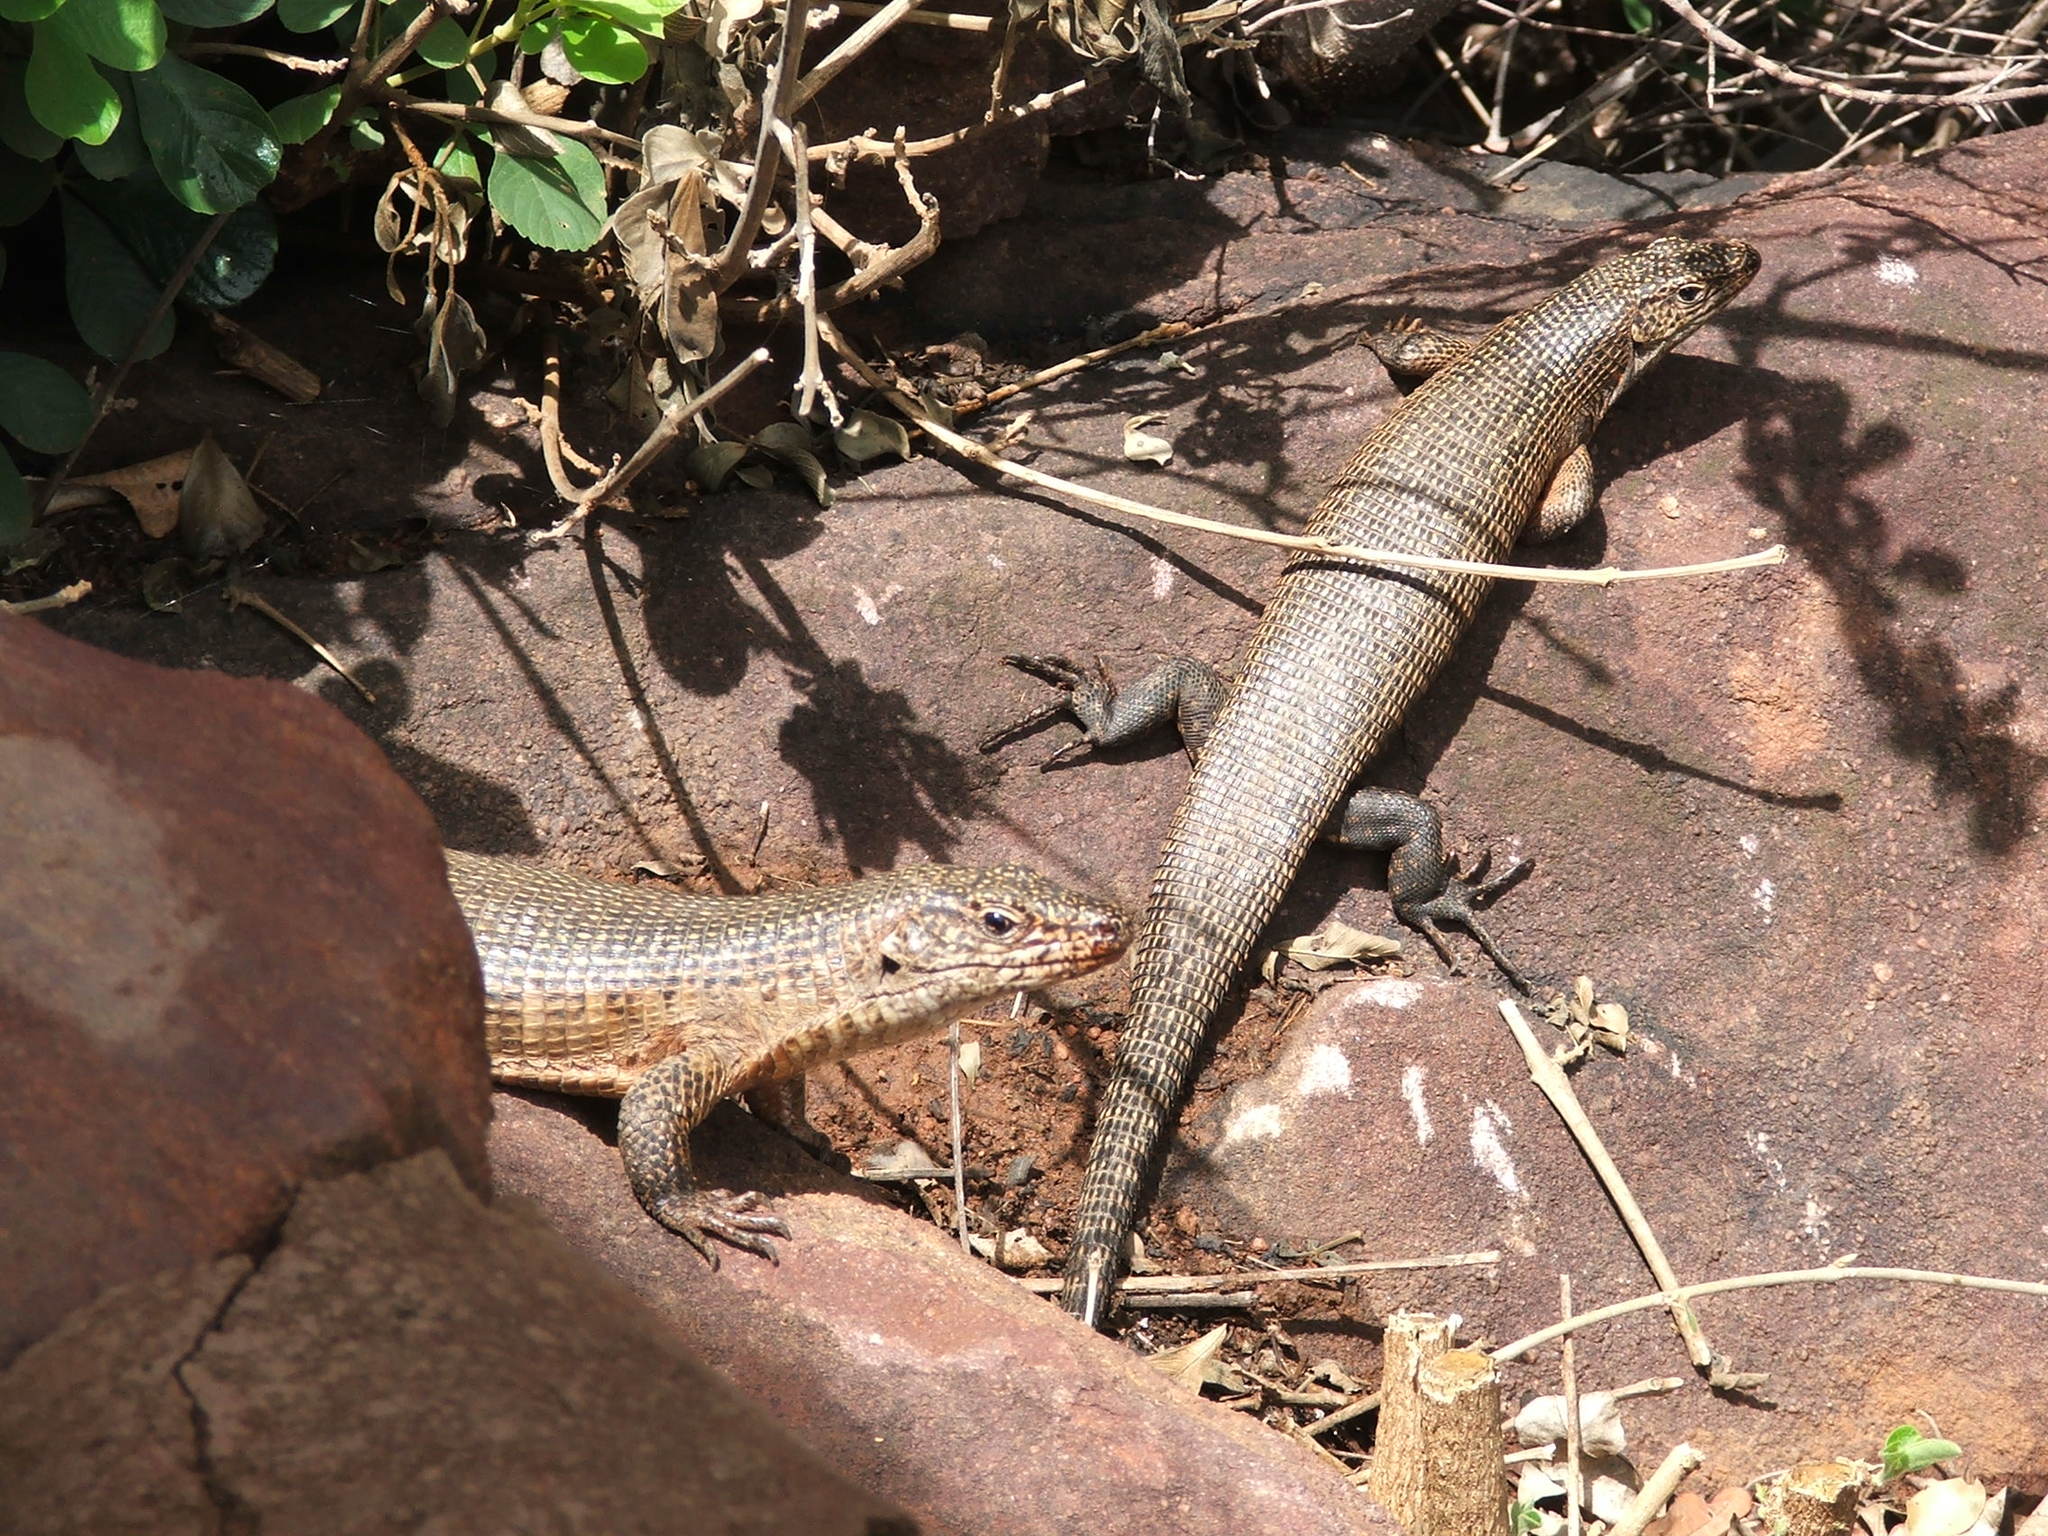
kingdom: Animalia
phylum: Chordata
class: Squamata
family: Gerrhosauridae
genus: Matobosaurus
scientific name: Matobosaurus validus
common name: Common giant plated lizard
